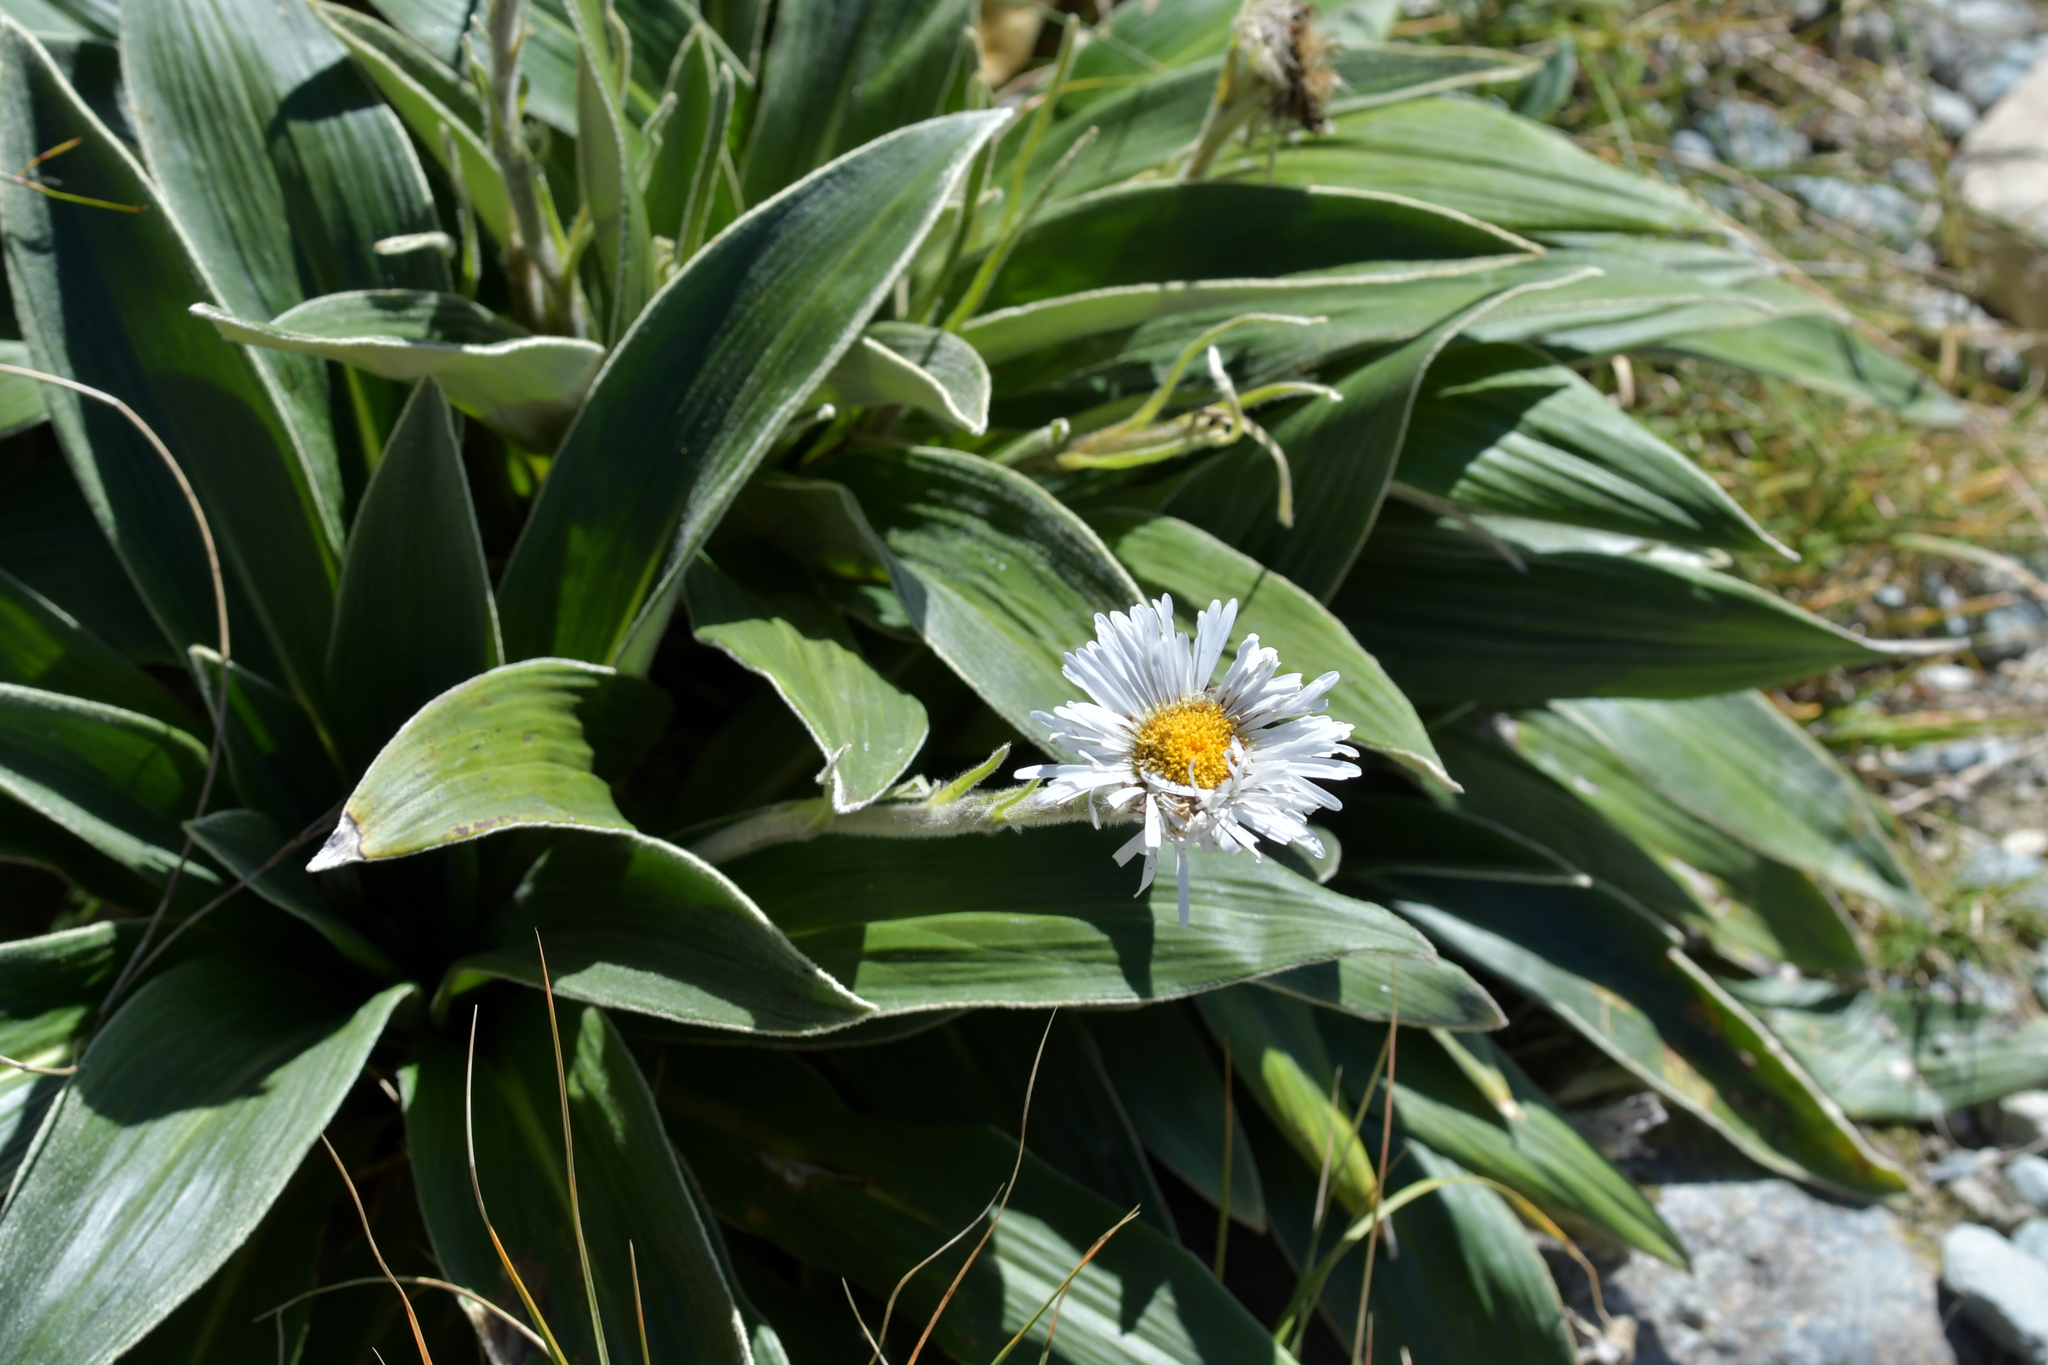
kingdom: Plantae
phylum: Tracheophyta
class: Magnoliopsida
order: Asterales
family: Asteraceae
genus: Celmisia
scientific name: Celmisia verbascifolia
